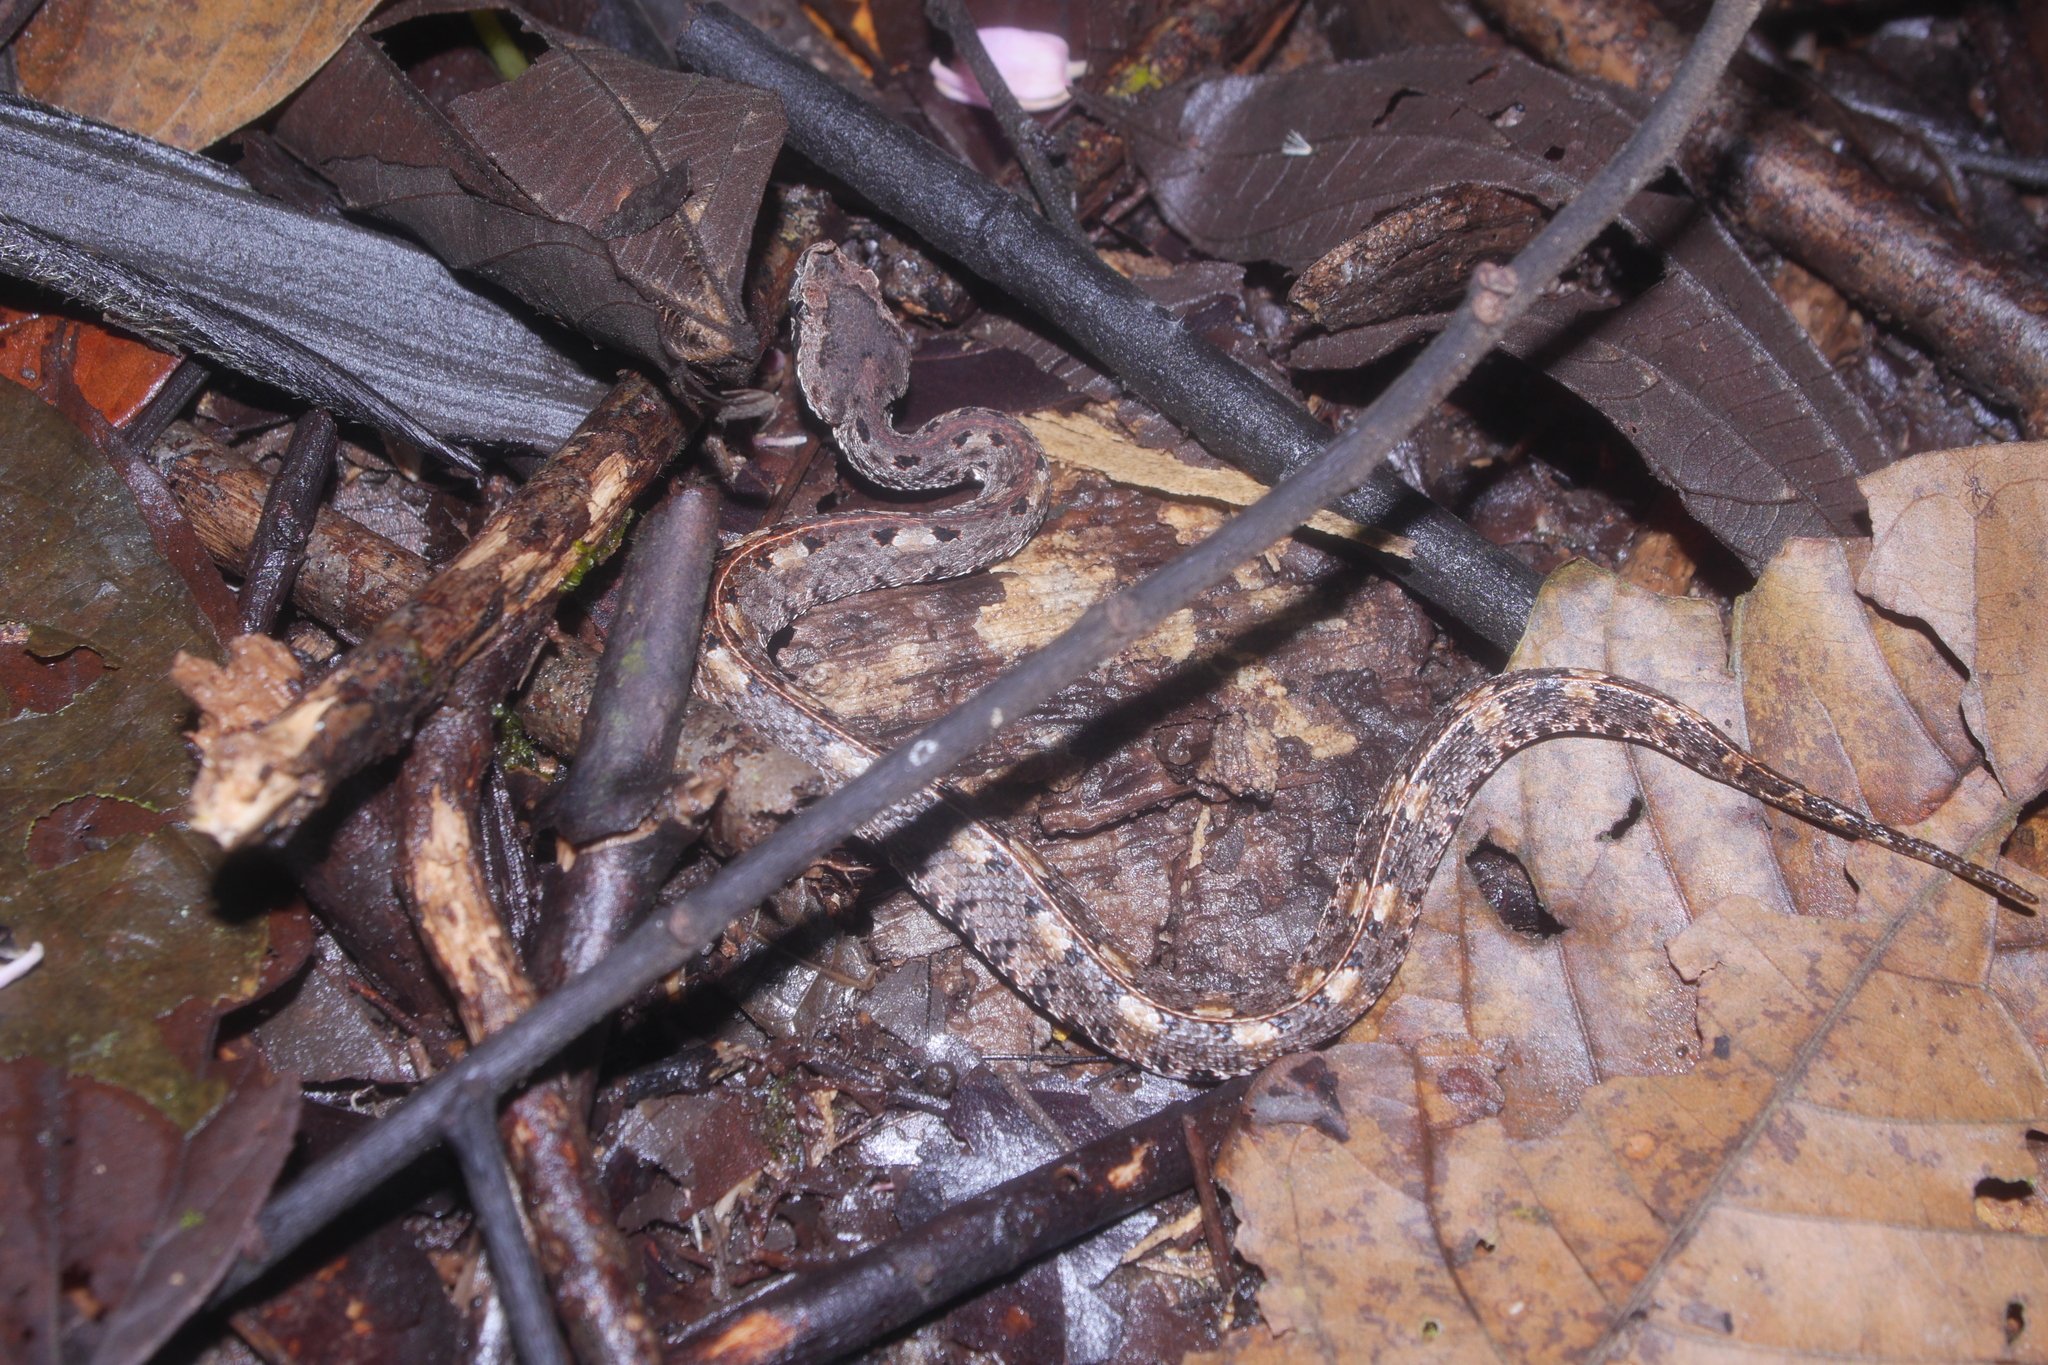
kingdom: Animalia
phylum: Chordata
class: Squamata
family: Viperidae
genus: Porthidium
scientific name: Porthidium nasutum
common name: Hognosed pit viper
